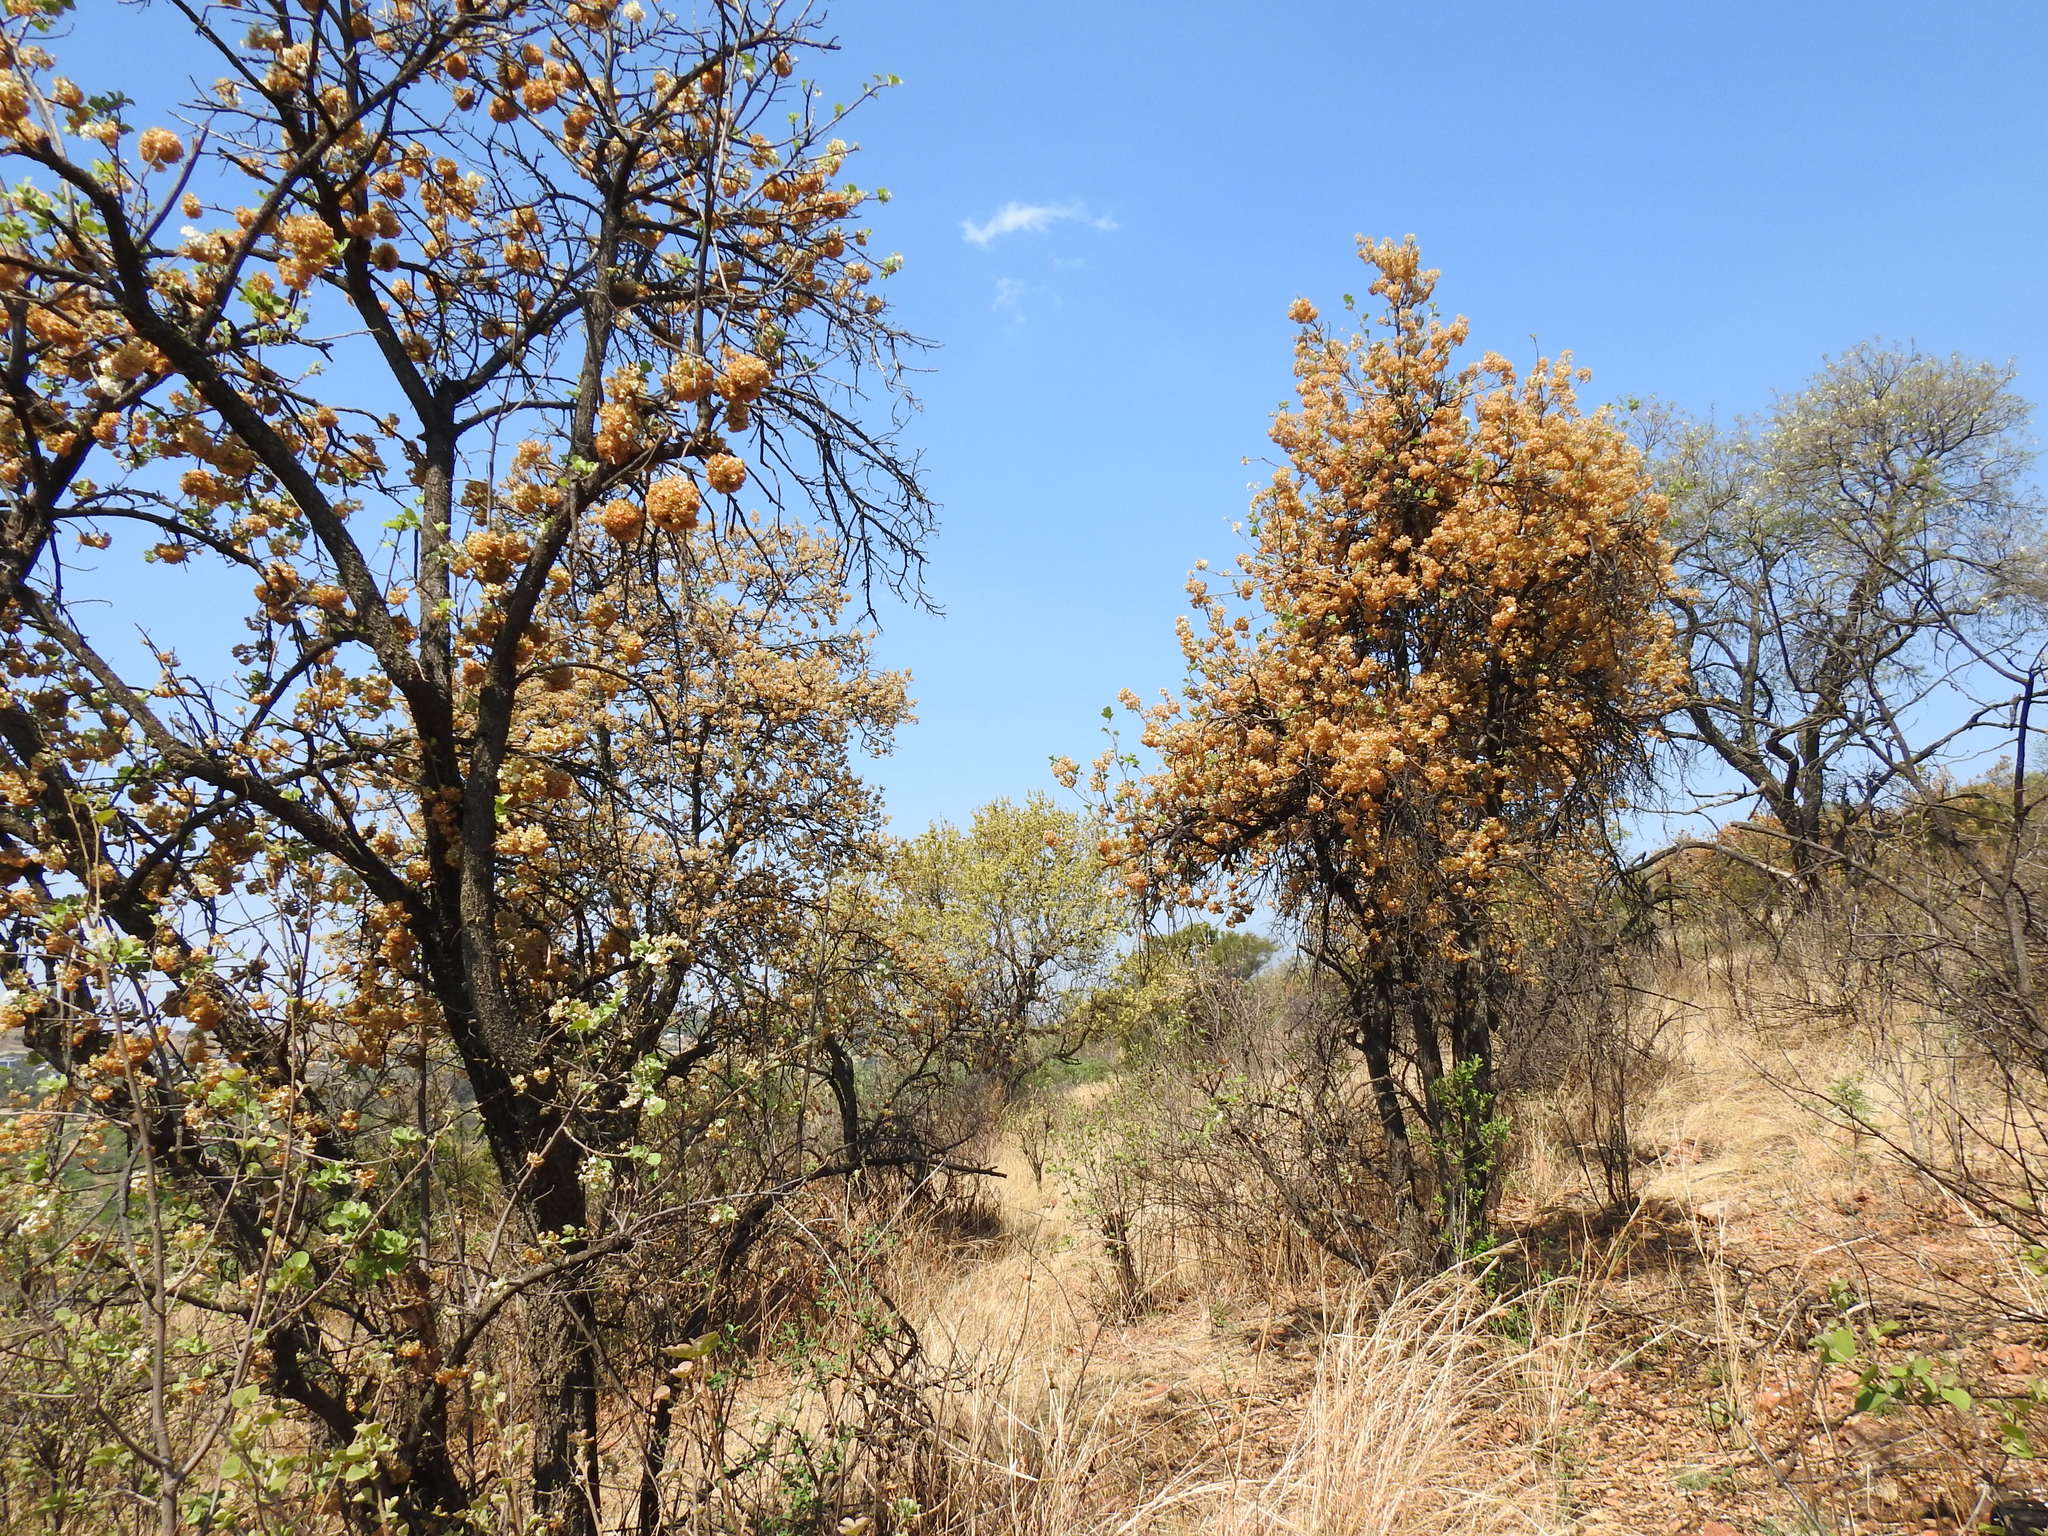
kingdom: Plantae
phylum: Tracheophyta
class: Magnoliopsida
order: Malvales
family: Malvaceae
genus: Dombeya
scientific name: Dombeya rotundifolia
